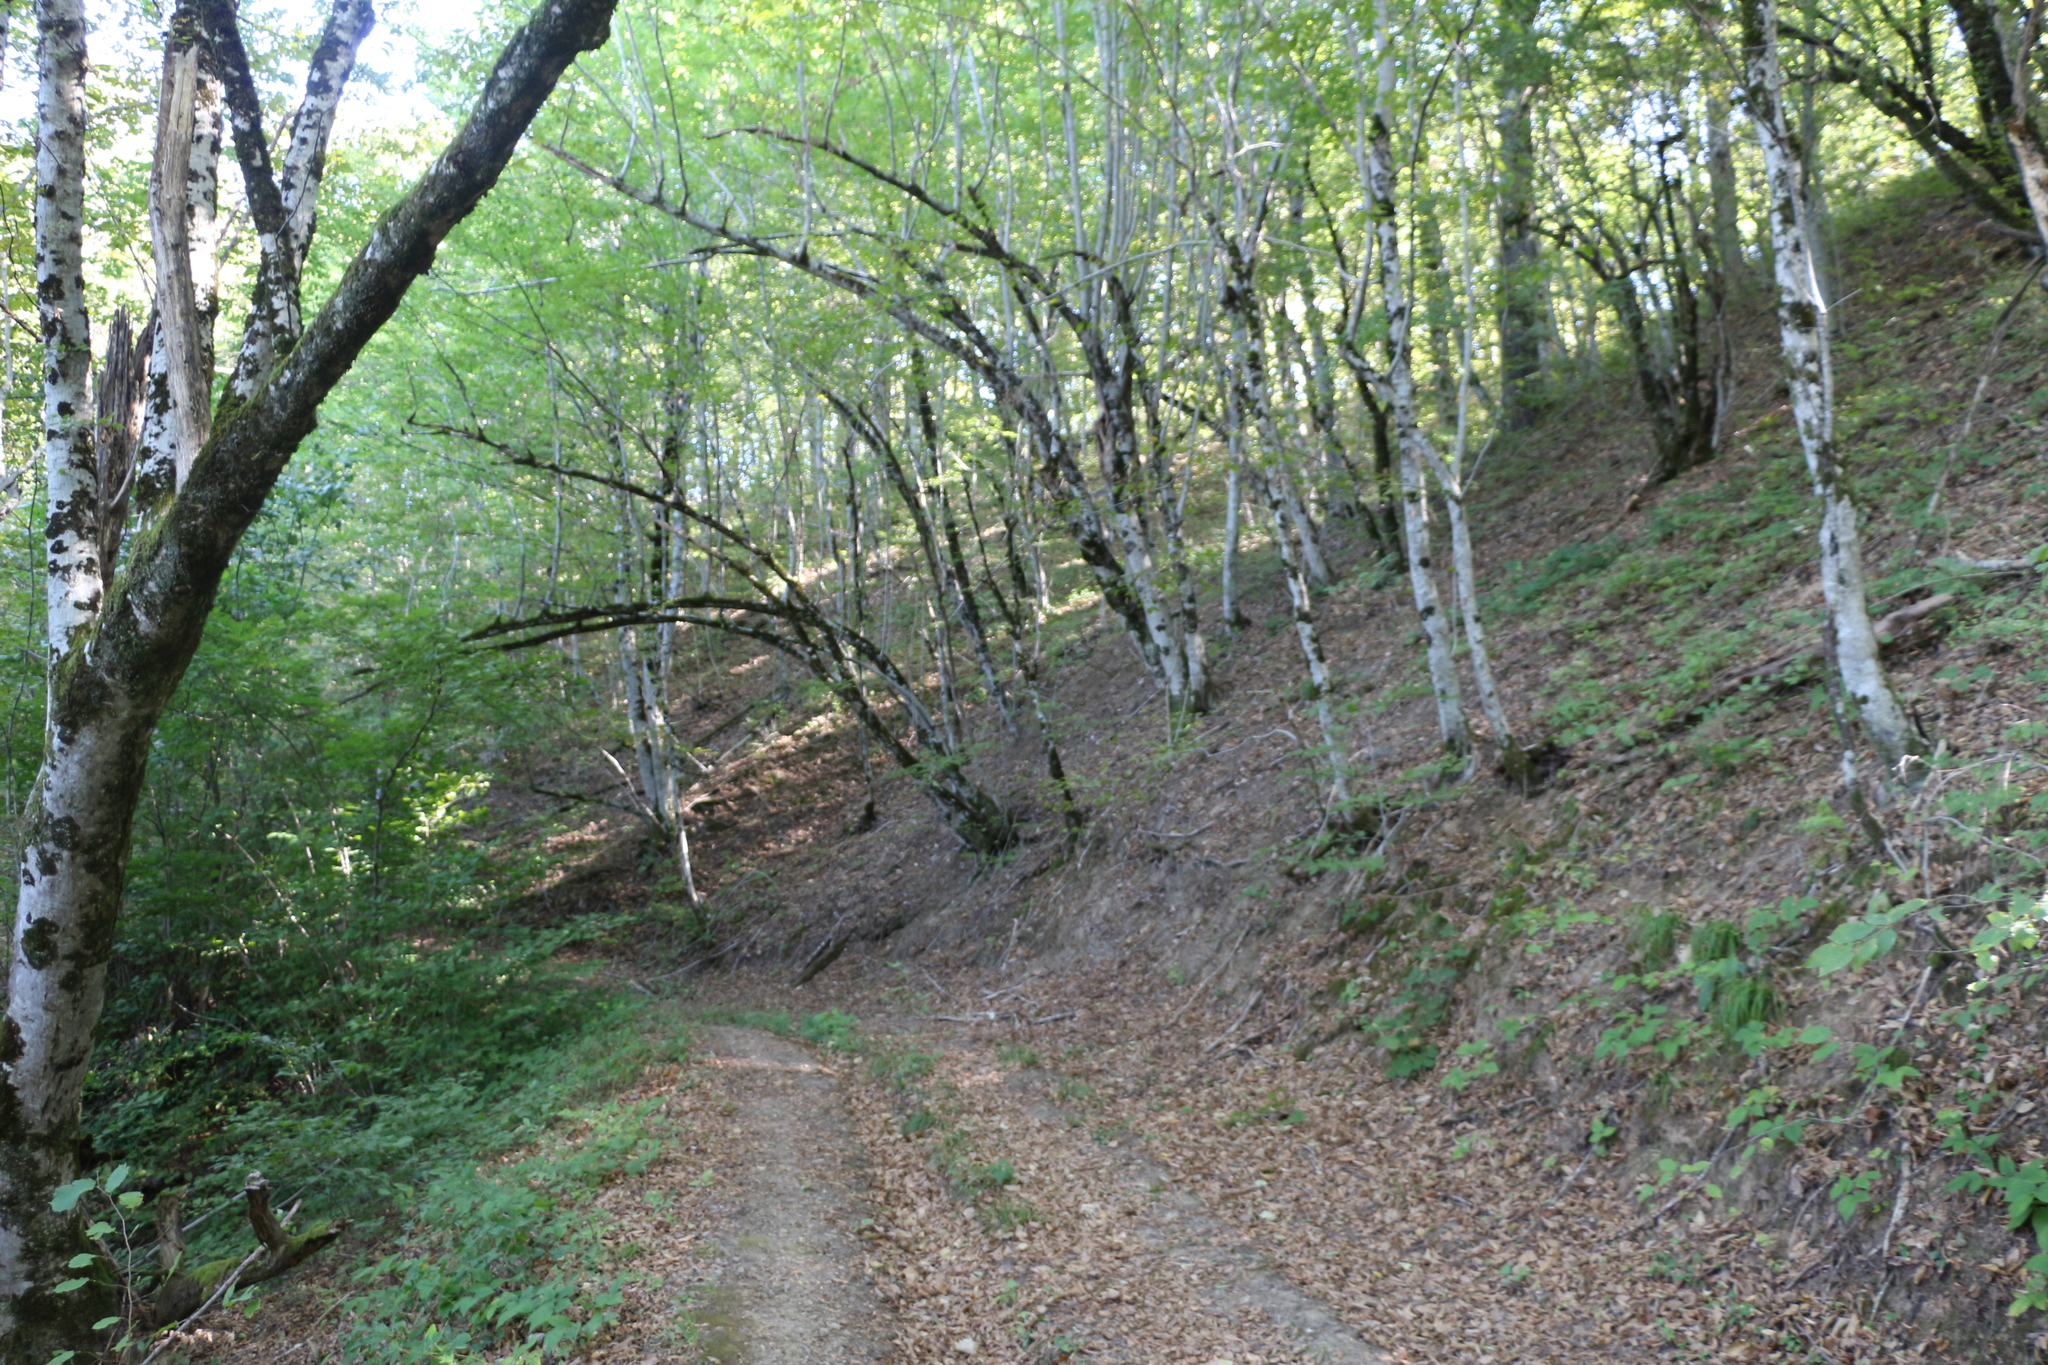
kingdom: Plantae
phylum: Tracheophyta
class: Magnoliopsida
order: Fagales
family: Betulaceae
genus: Carpinus
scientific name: Carpinus orientalis
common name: Eastern hornbeam
